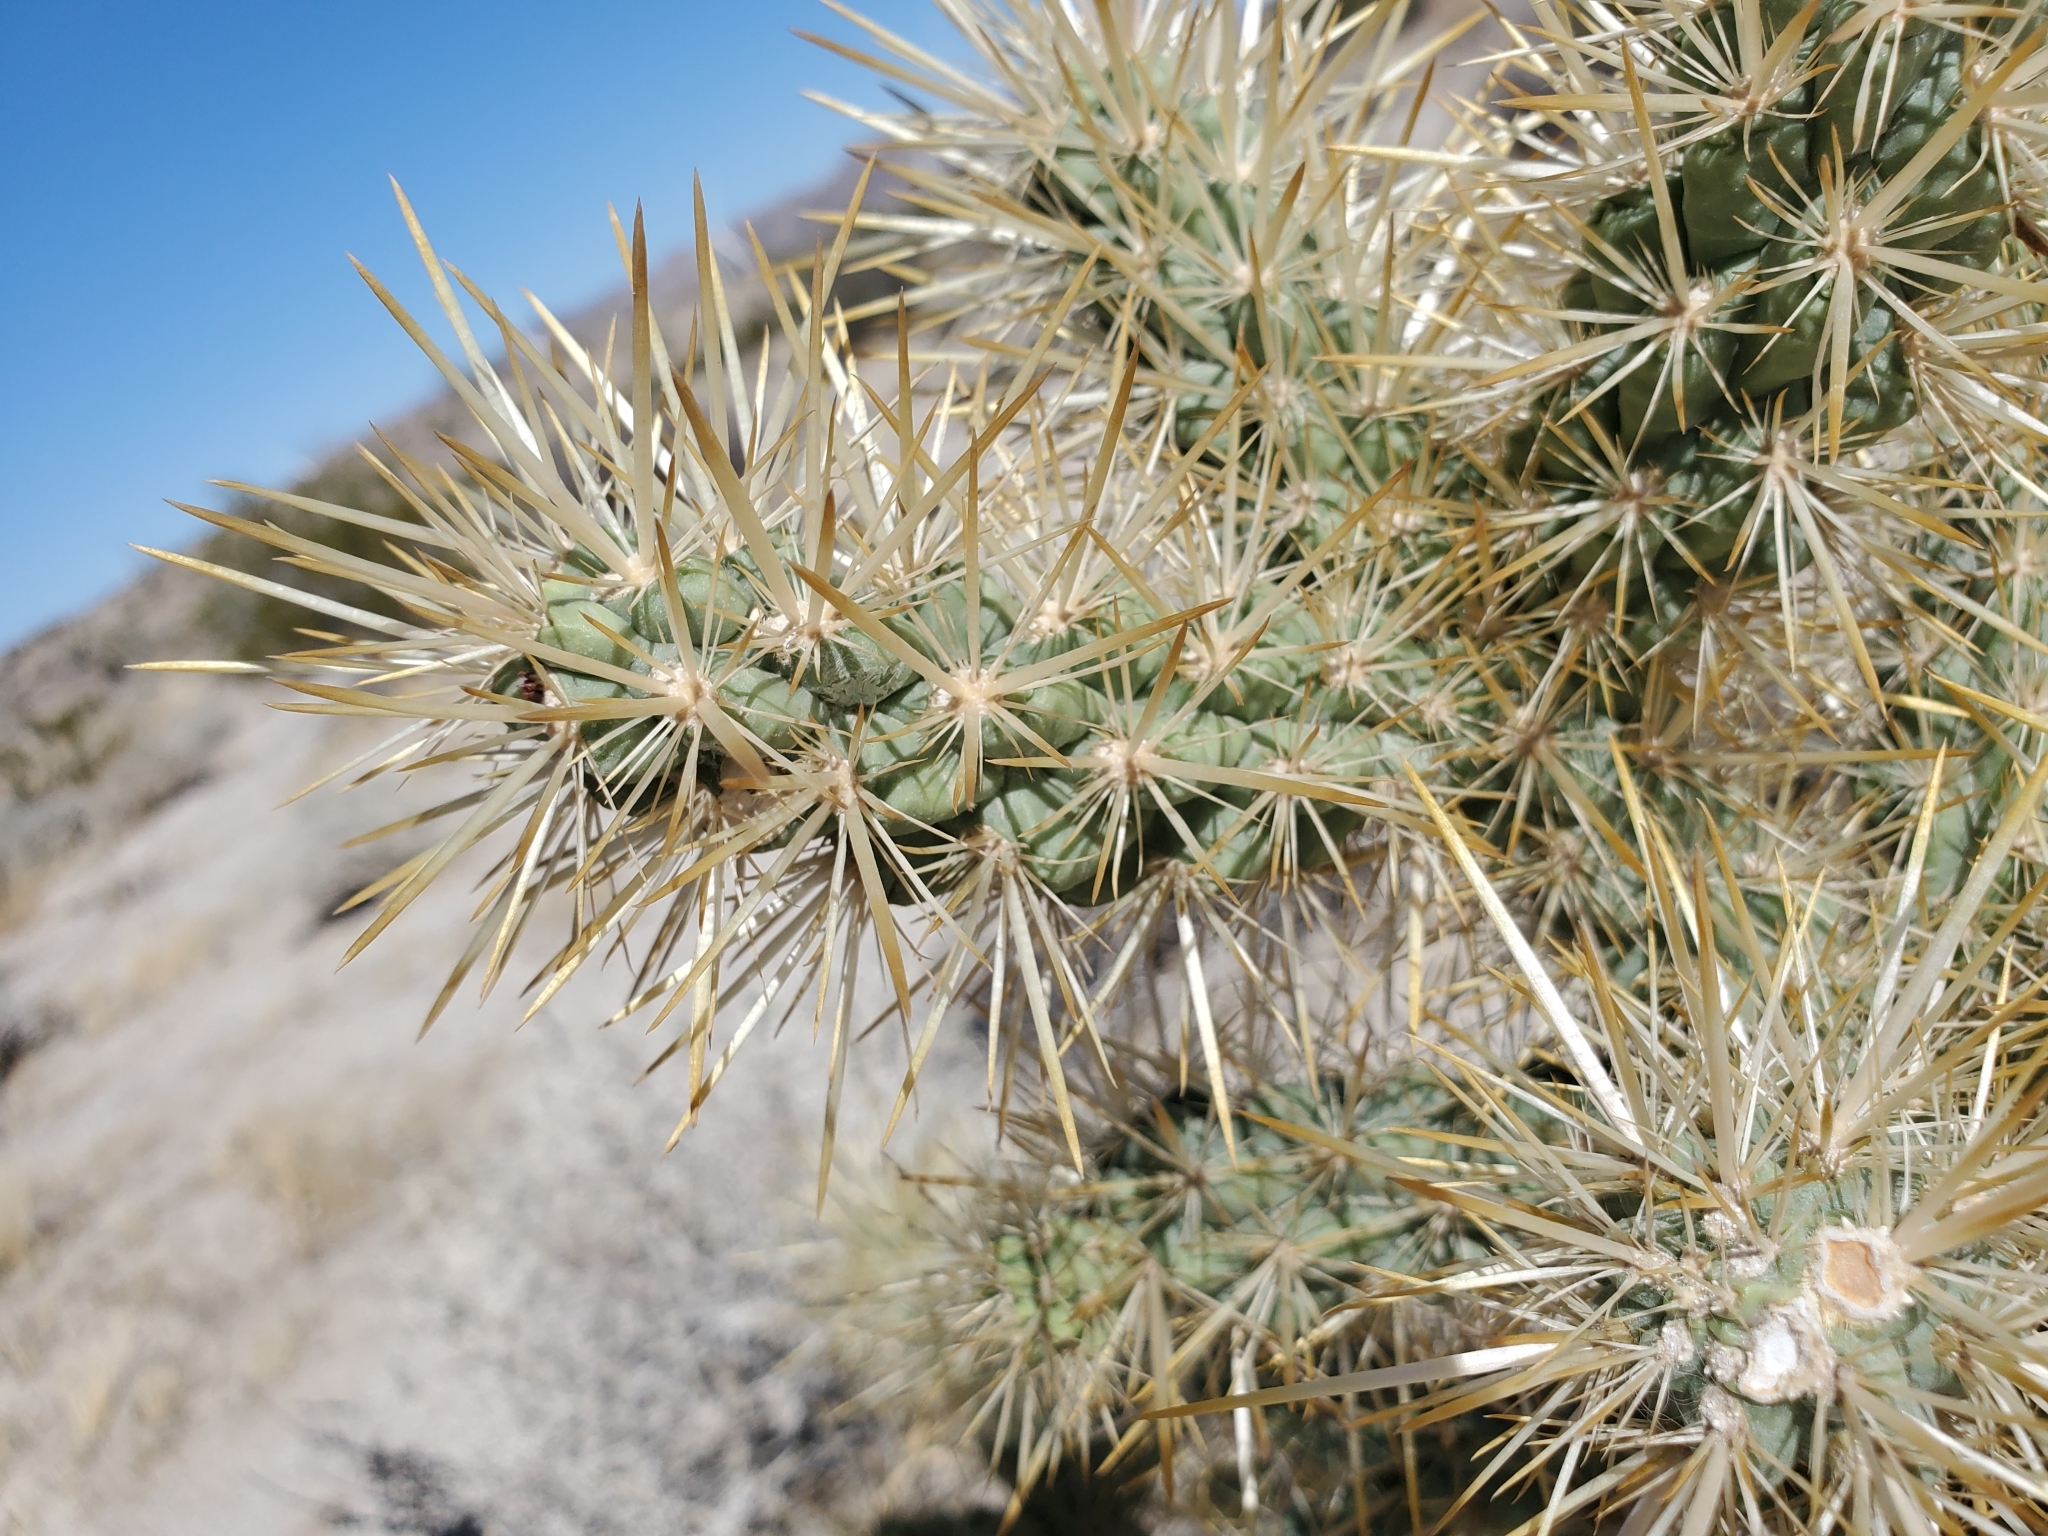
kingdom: Plantae
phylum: Tracheophyta
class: Magnoliopsida
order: Caryophyllales
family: Cactaceae
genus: Cylindropuntia
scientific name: Cylindropuntia echinocarpa
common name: Ground cholla
